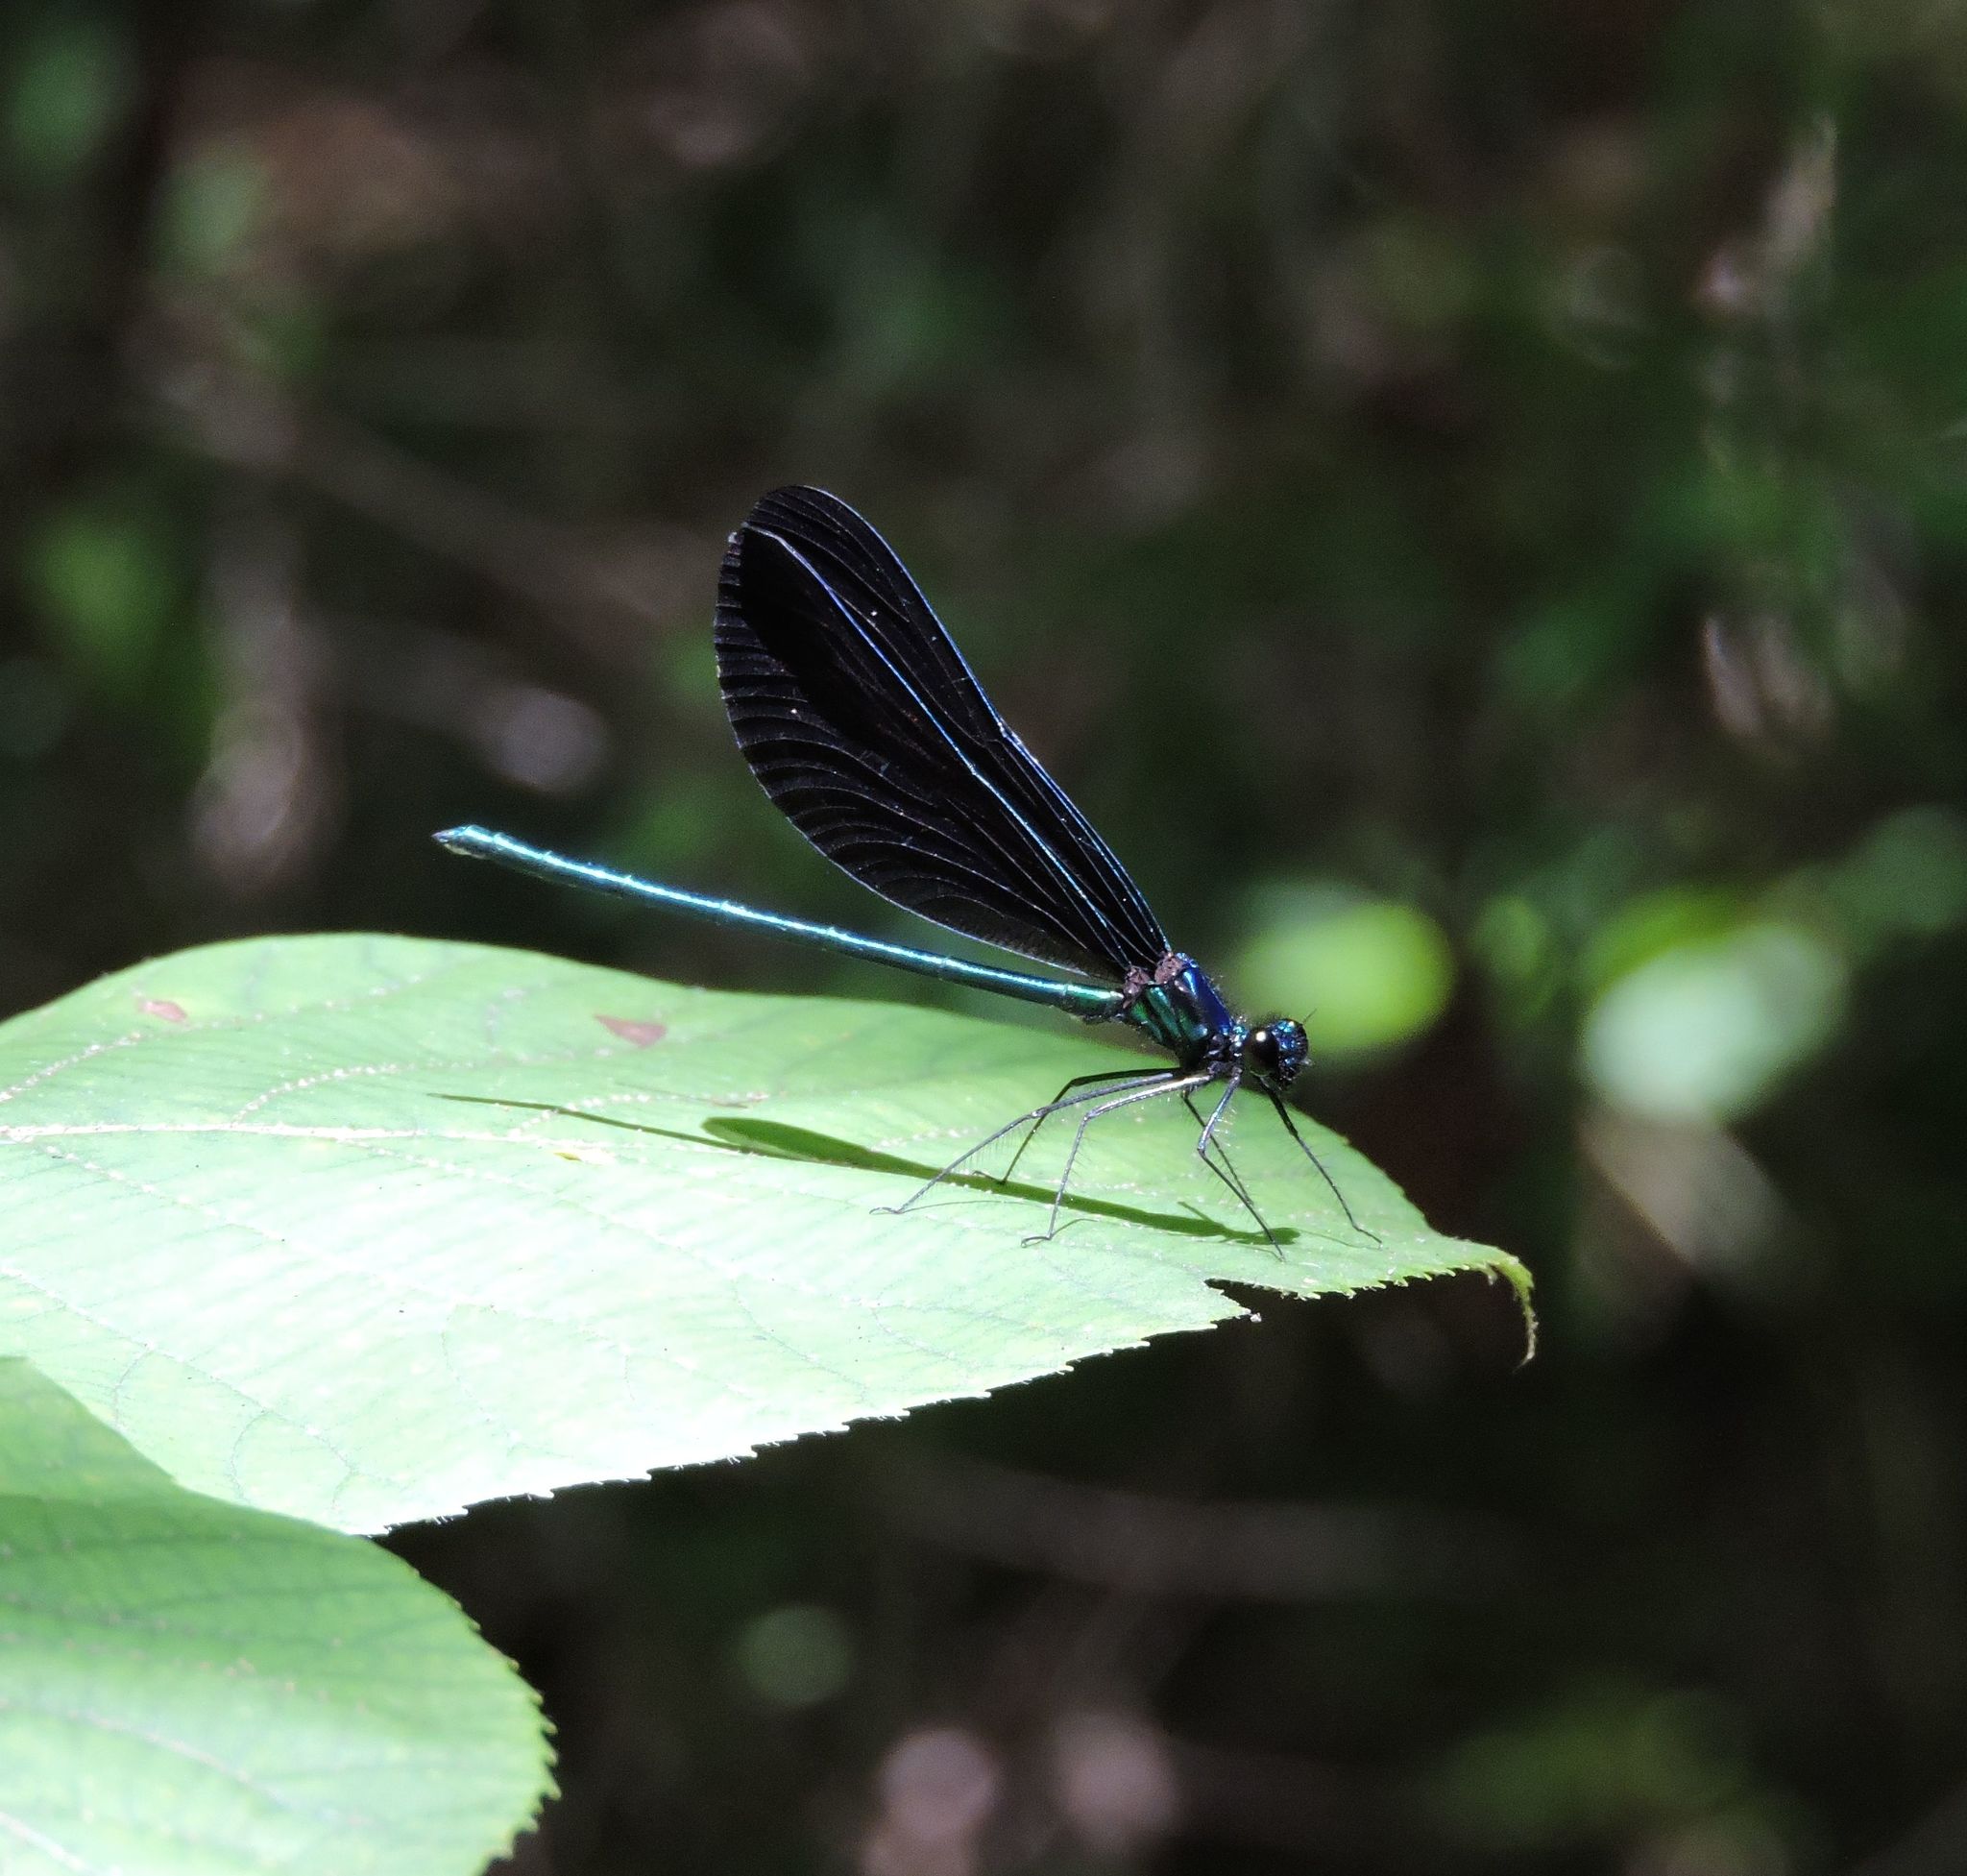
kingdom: Animalia
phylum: Arthropoda
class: Insecta
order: Odonata
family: Calopterygidae
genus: Calopteryx
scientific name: Calopteryx maculata
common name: Ebony jewelwing
